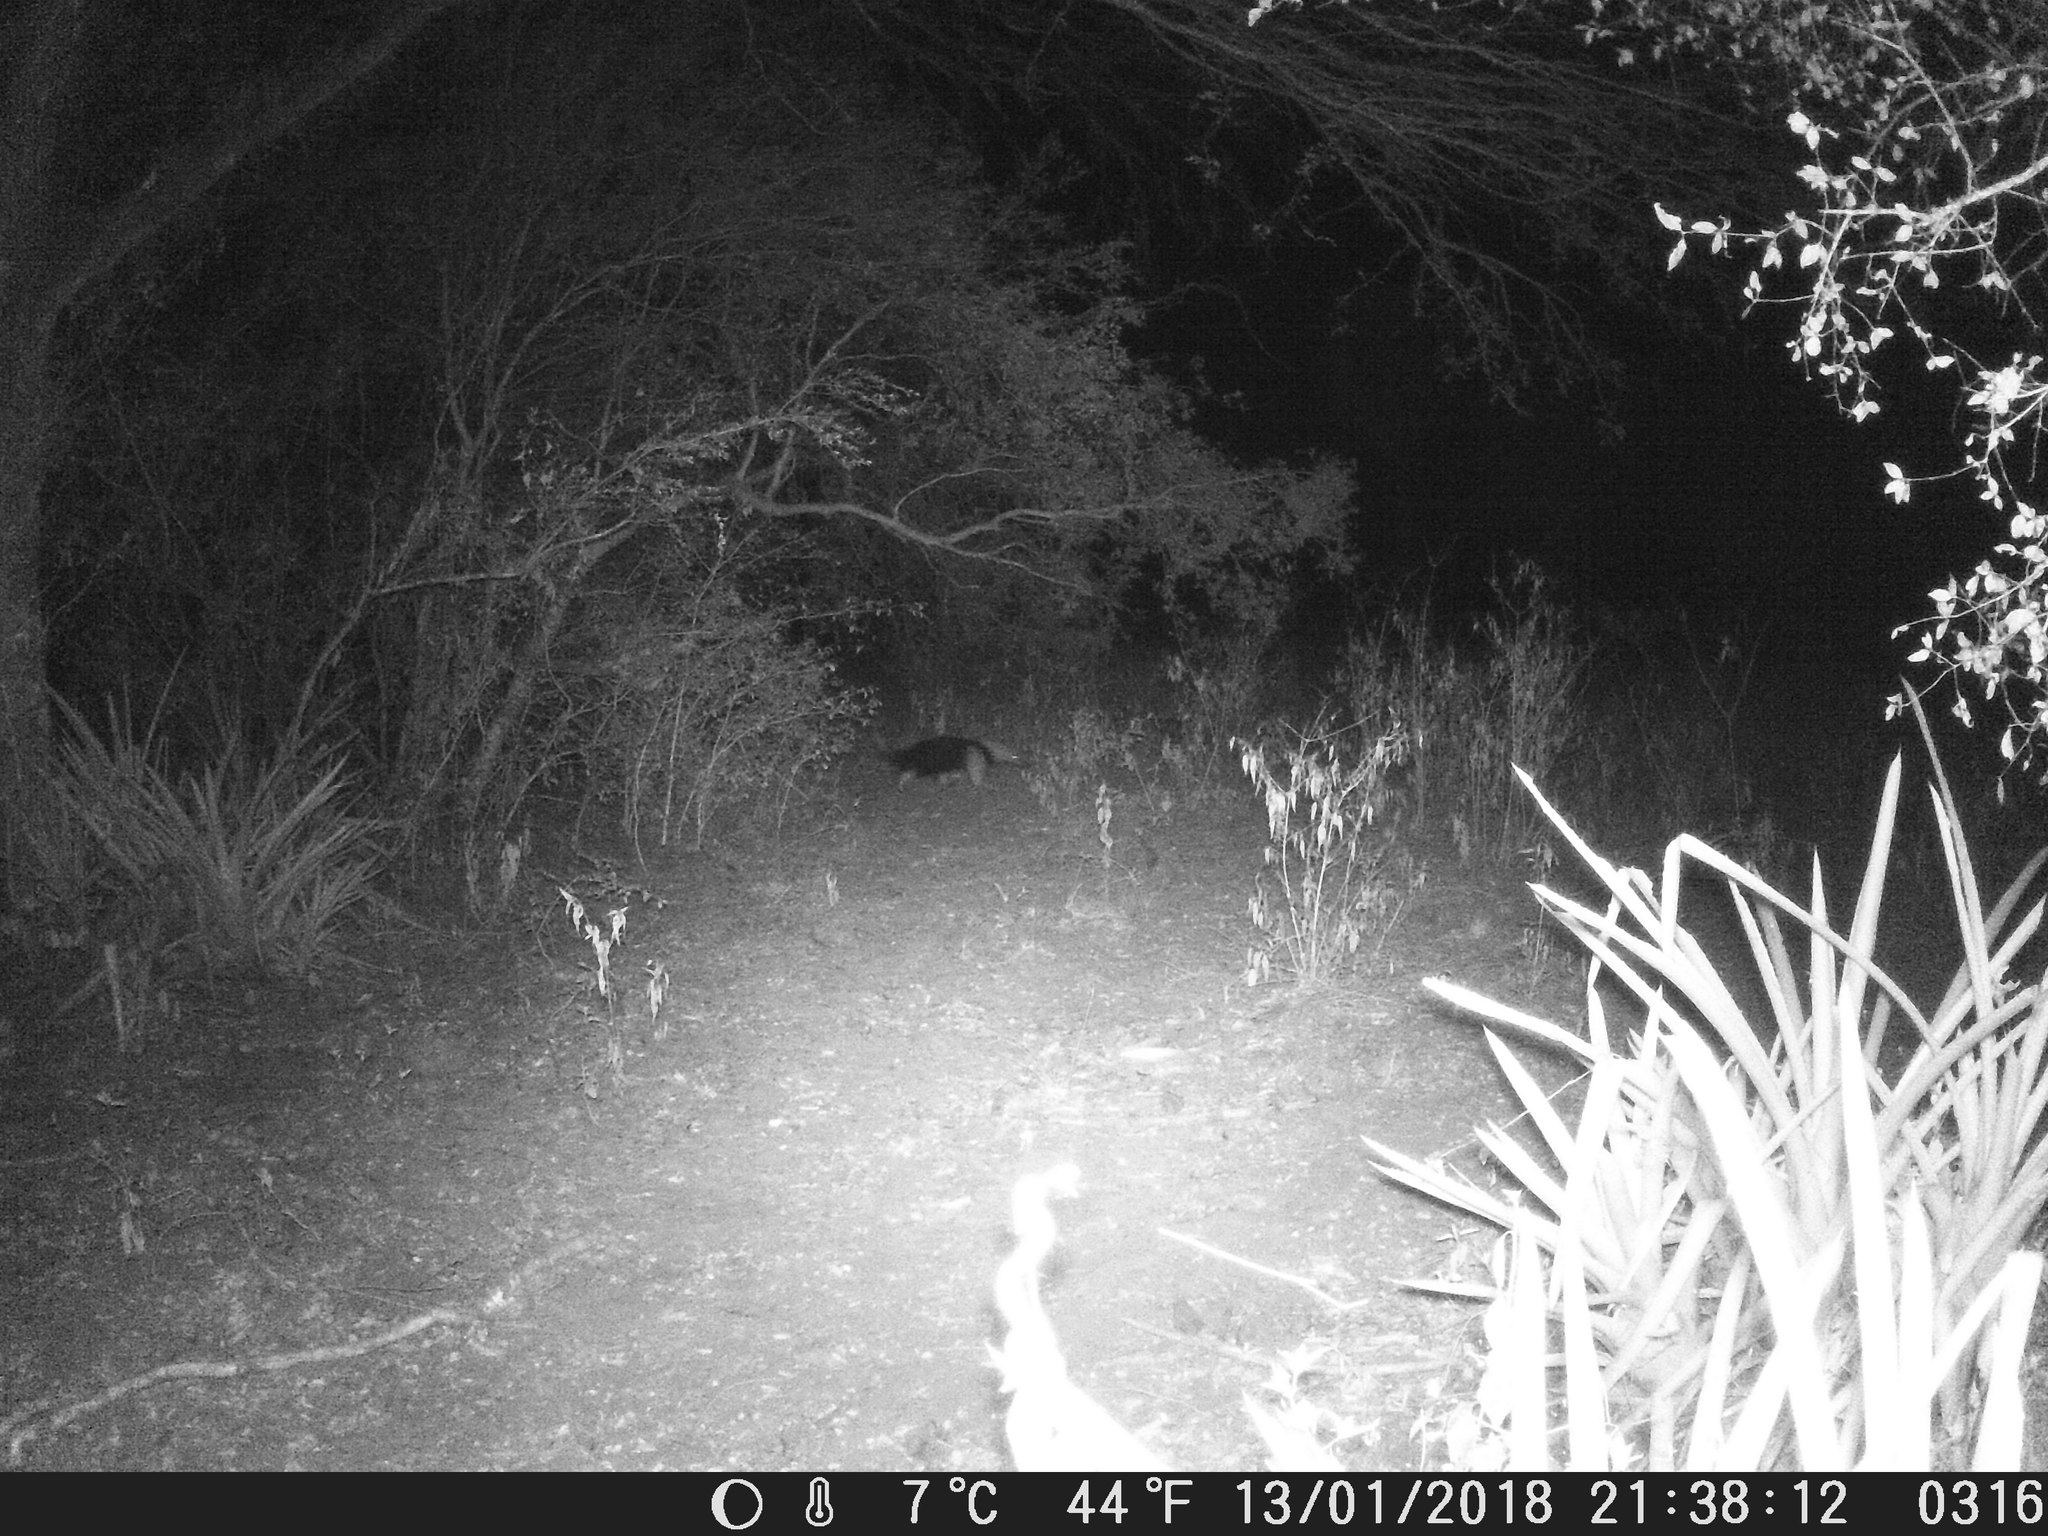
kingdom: Animalia
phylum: Chordata
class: Mammalia
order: Pilosa
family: Myrmecophagidae
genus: Tamandua
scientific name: Tamandua tetradactyla
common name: Southern tamandua
